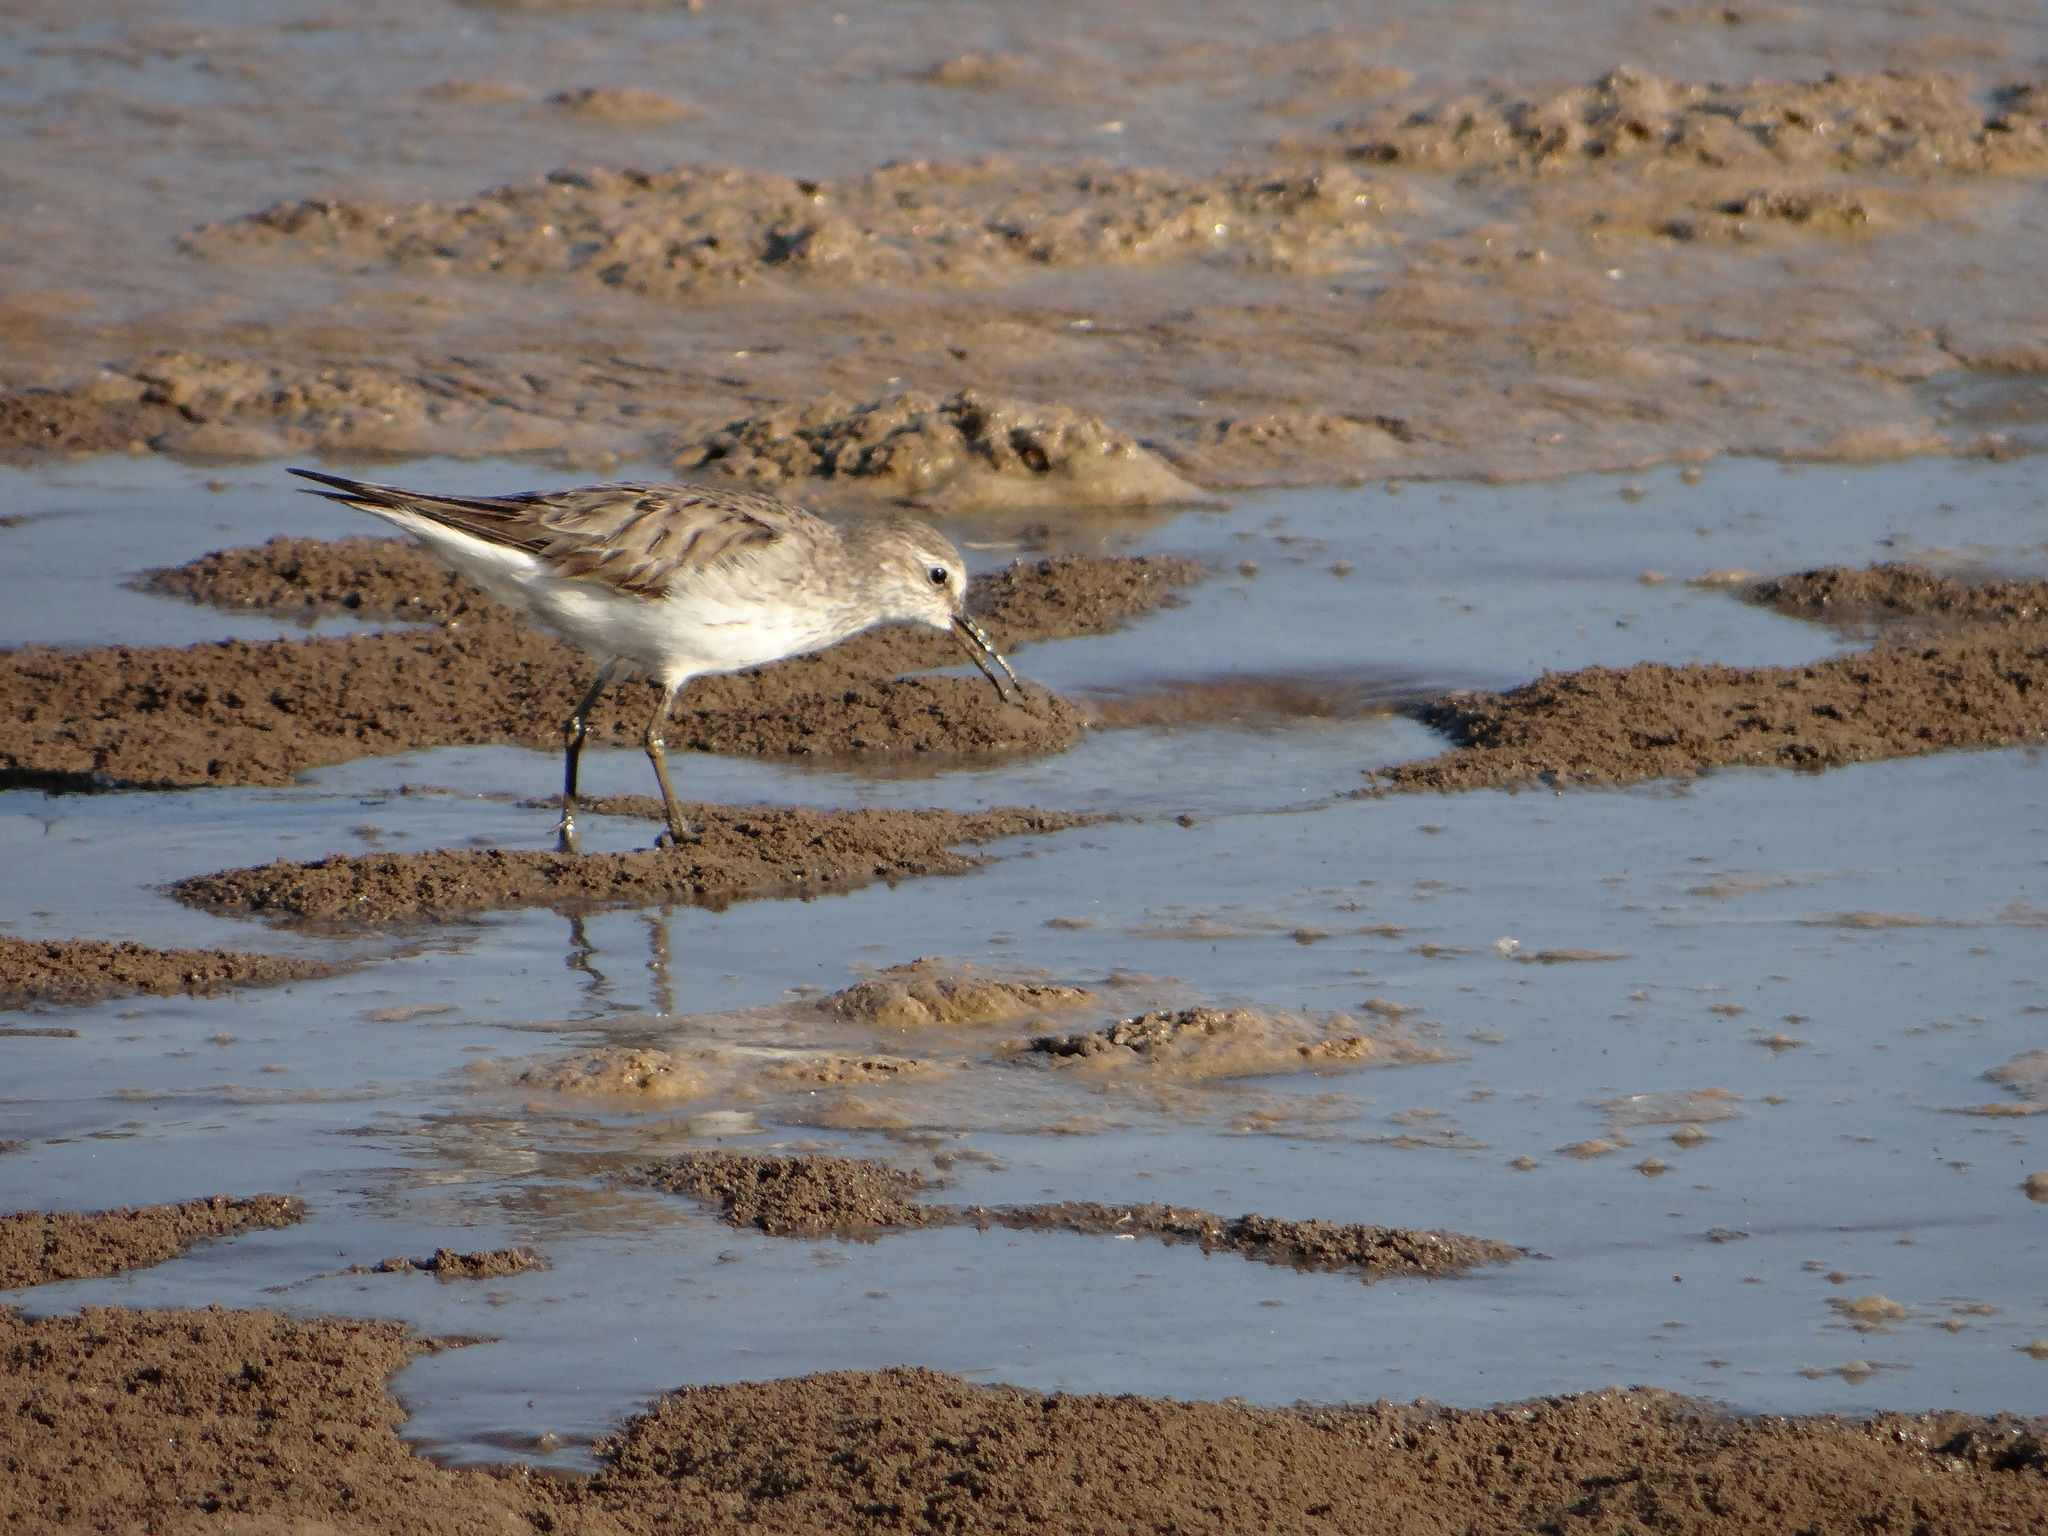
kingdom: Animalia
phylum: Chordata
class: Aves
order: Charadriiformes
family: Scolopacidae
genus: Calidris
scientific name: Calidris fuscicollis
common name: White-rumped sandpiper
